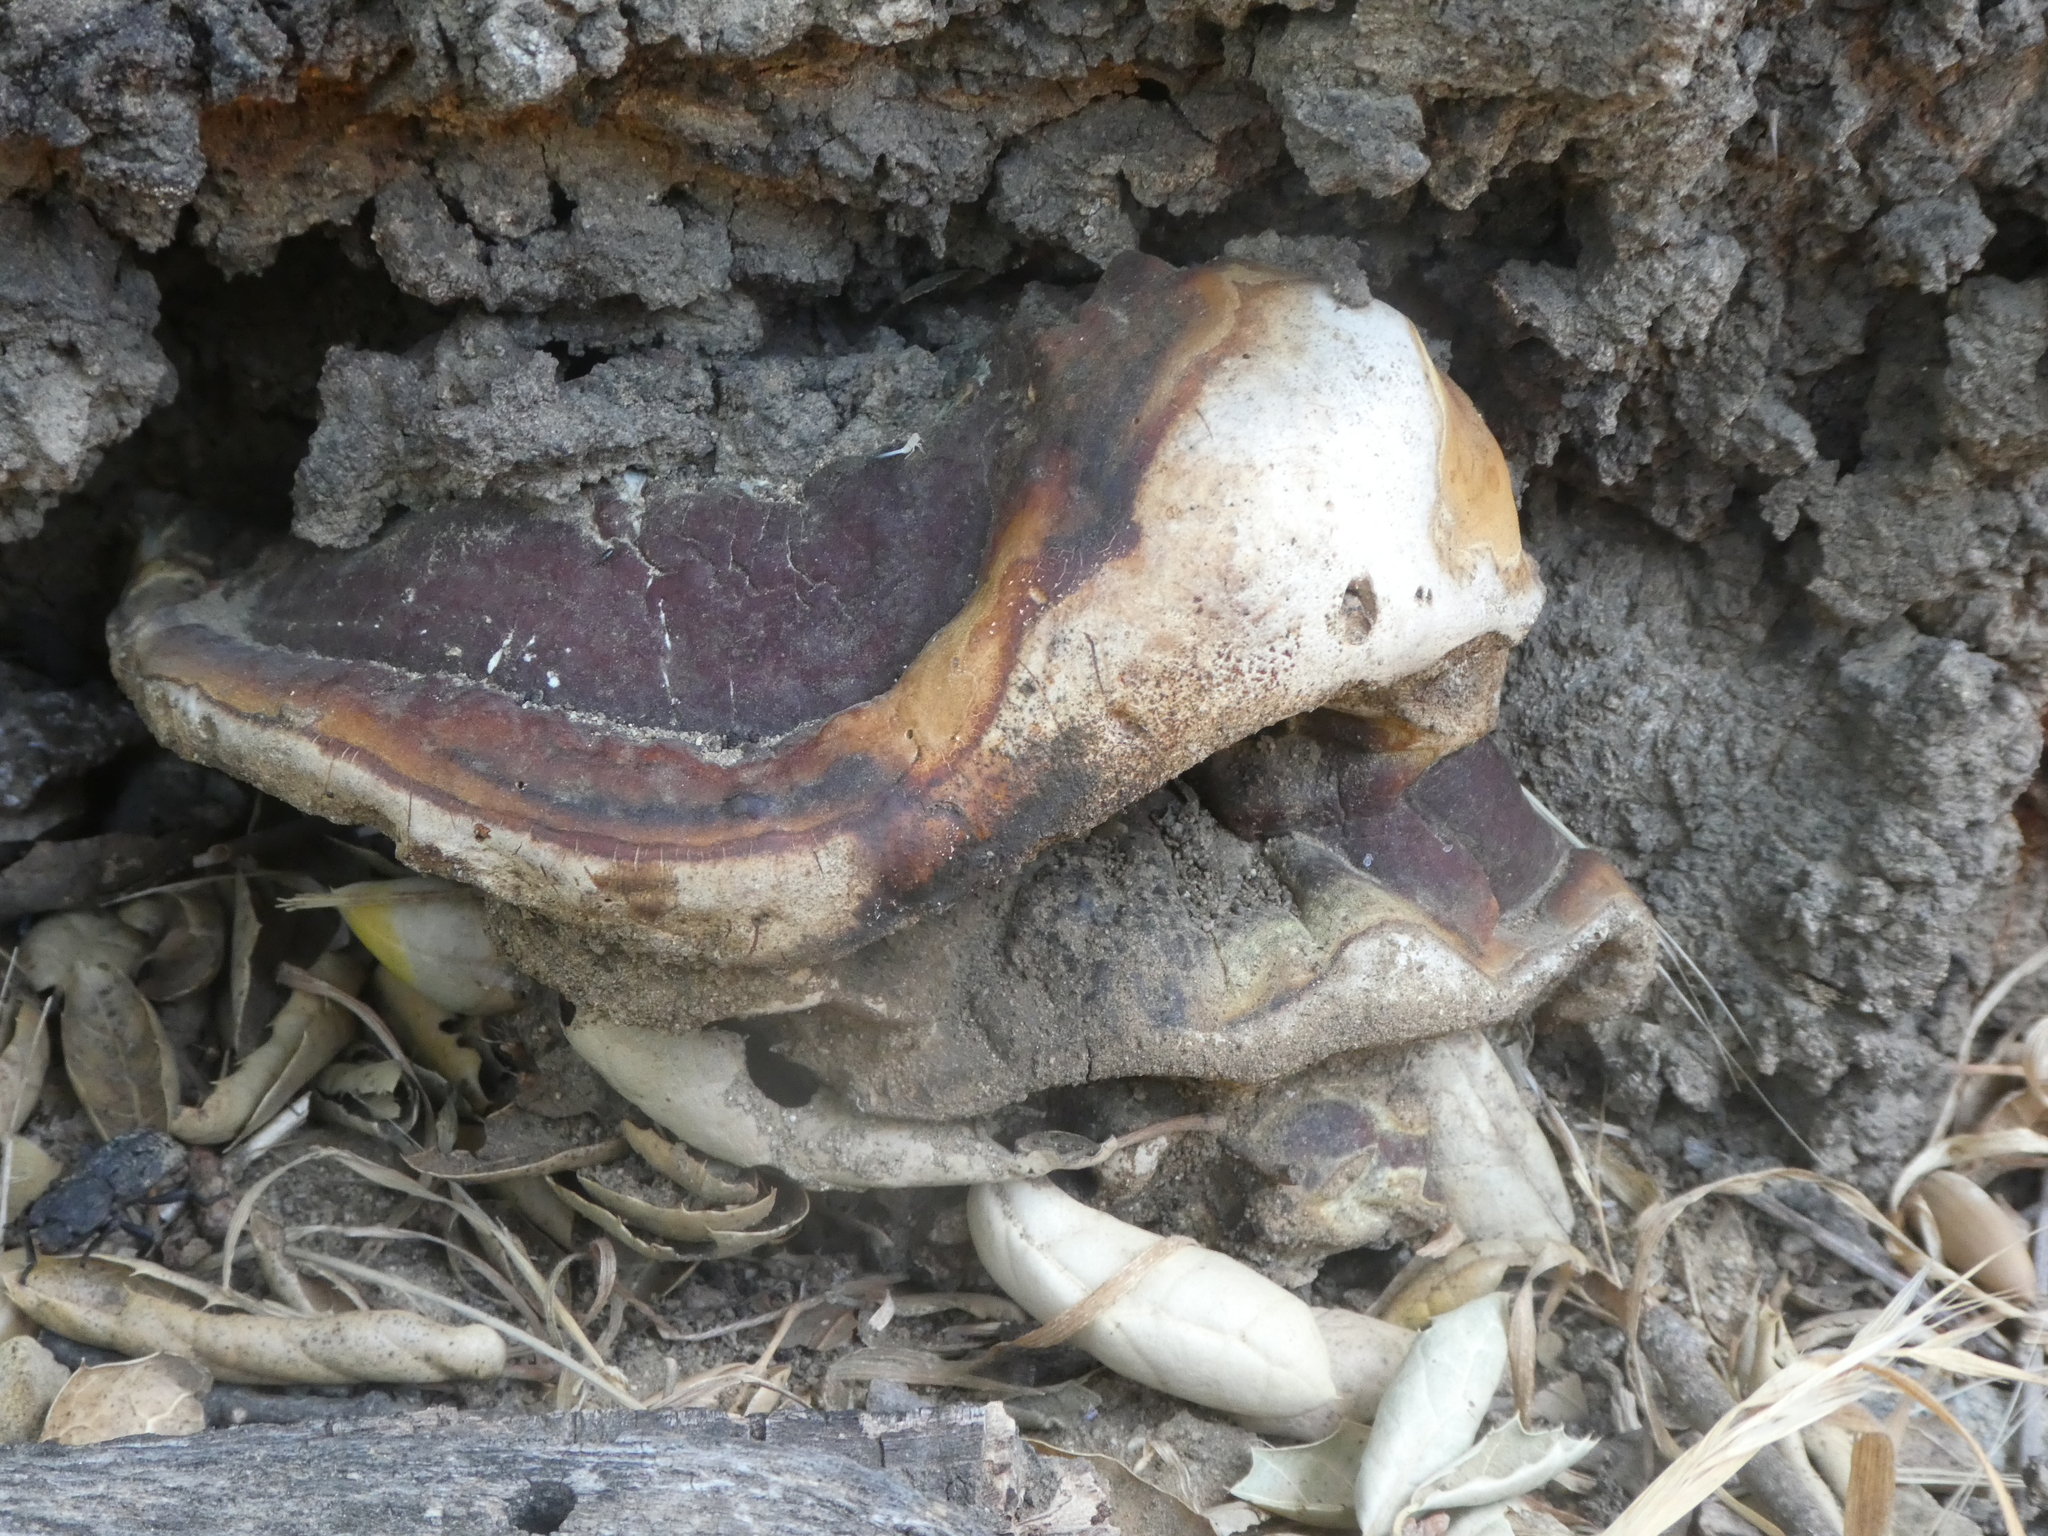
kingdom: Fungi
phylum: Basidiomycota
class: Agaricomycetes
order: Polyporales
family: Polyporaceae
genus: Ganoderma
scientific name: Ganoderma polychromum
